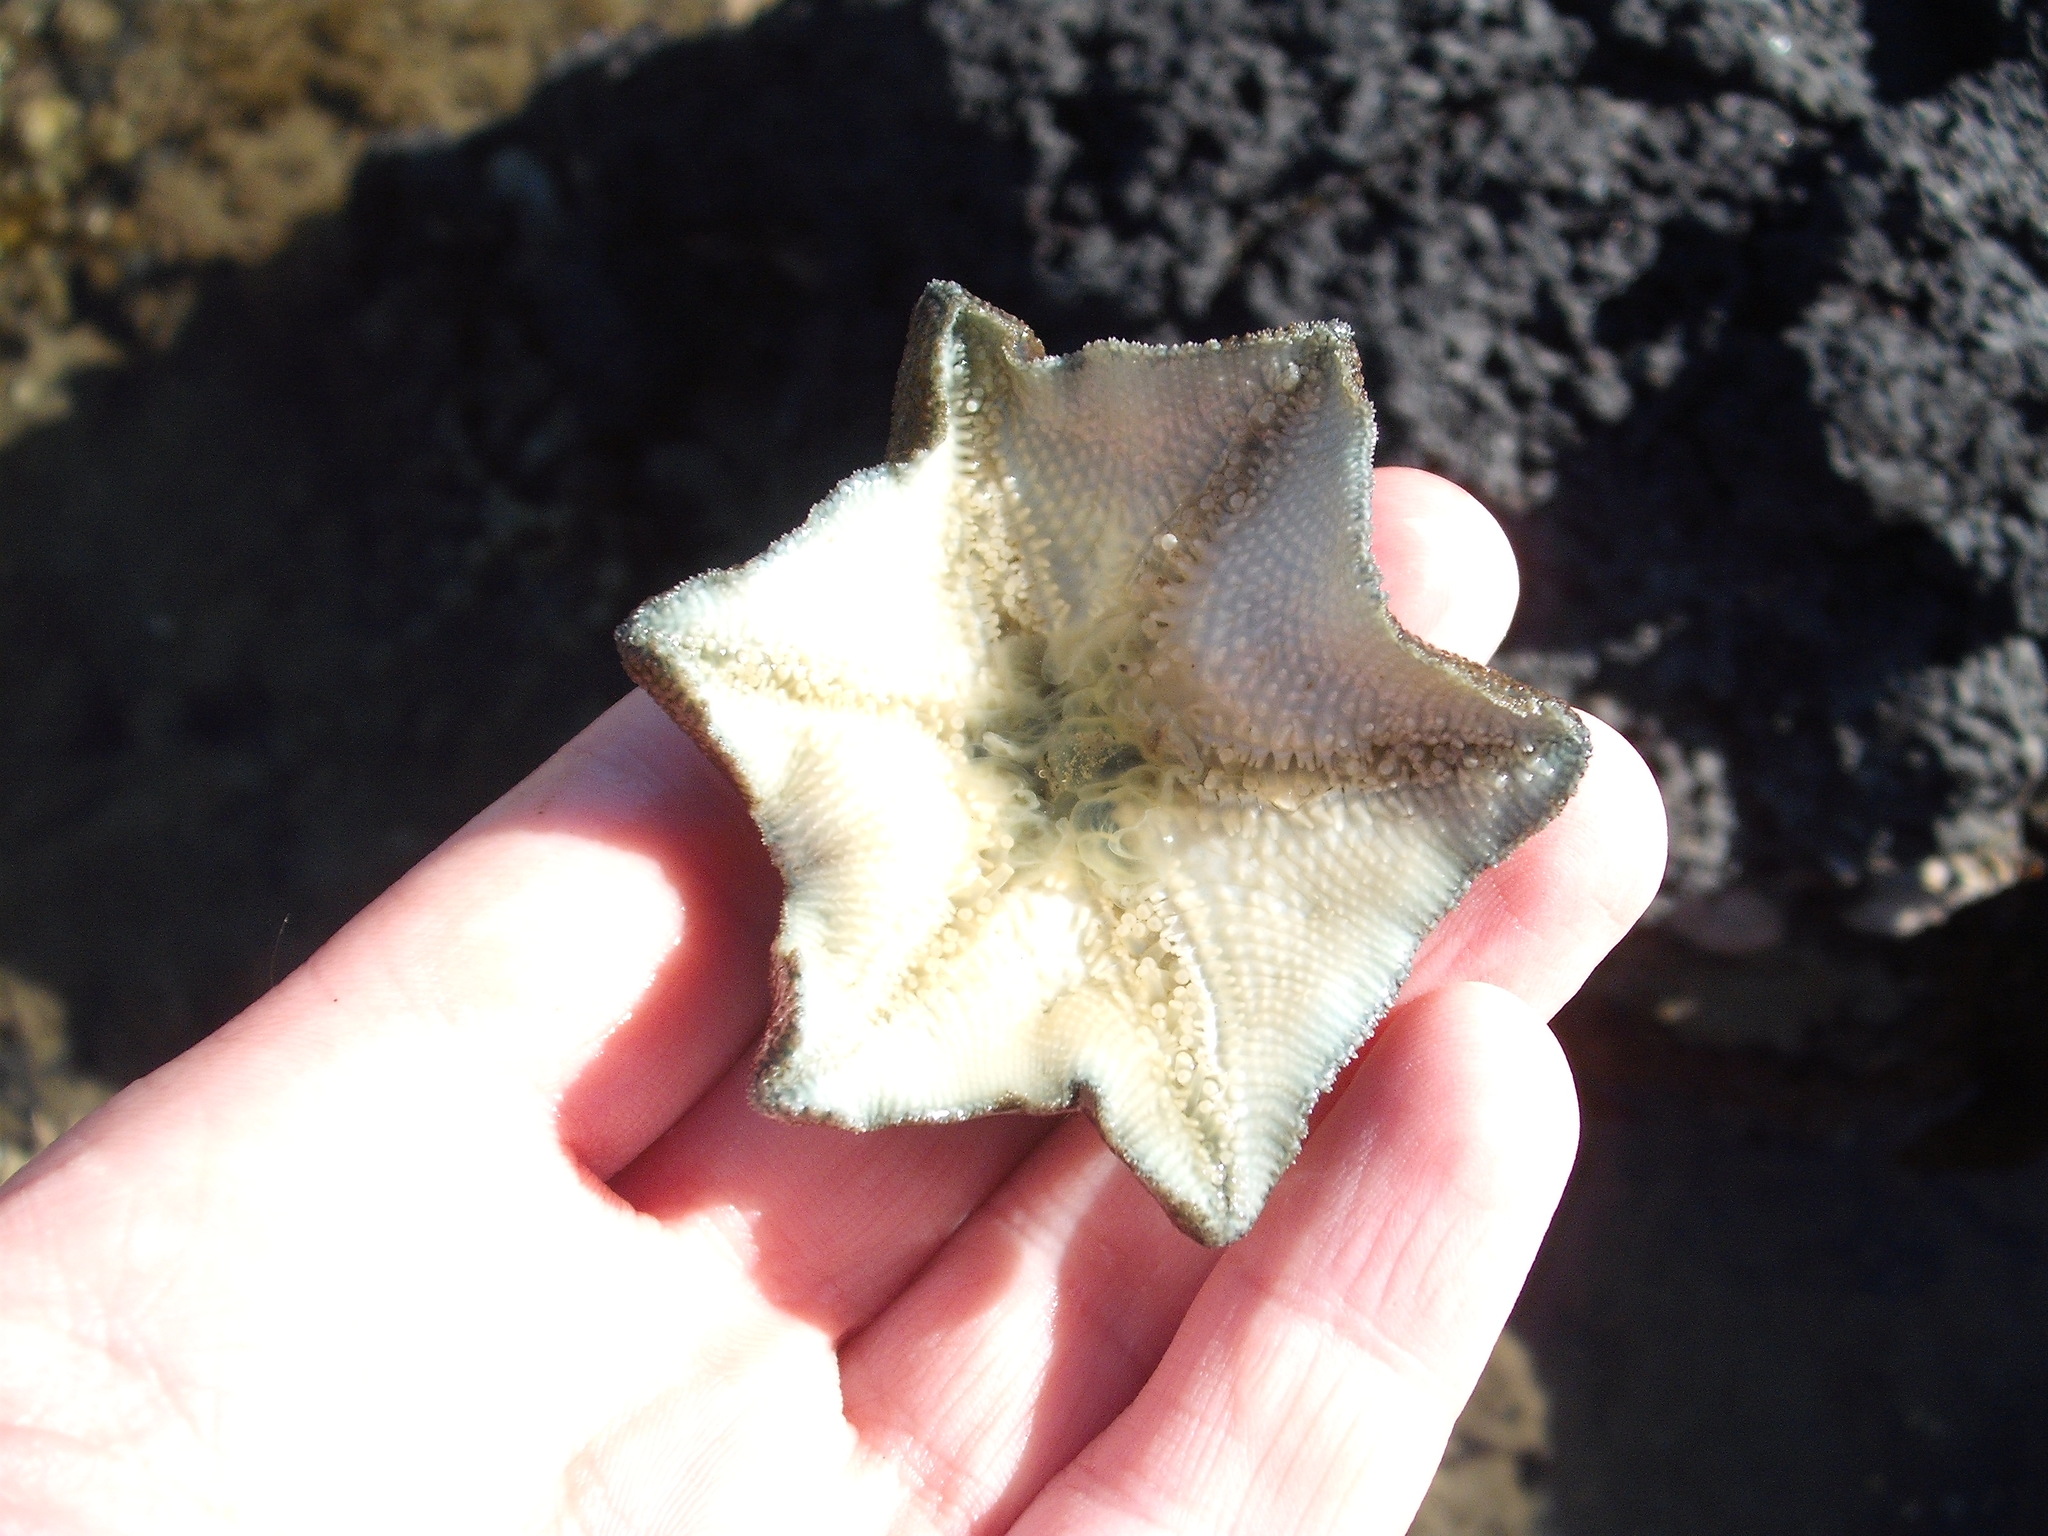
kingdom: Animalia
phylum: Echinodermata
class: Asteroidea
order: Valvatida
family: Asterinidae
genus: Patiriella
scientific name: Patiriella regularis
